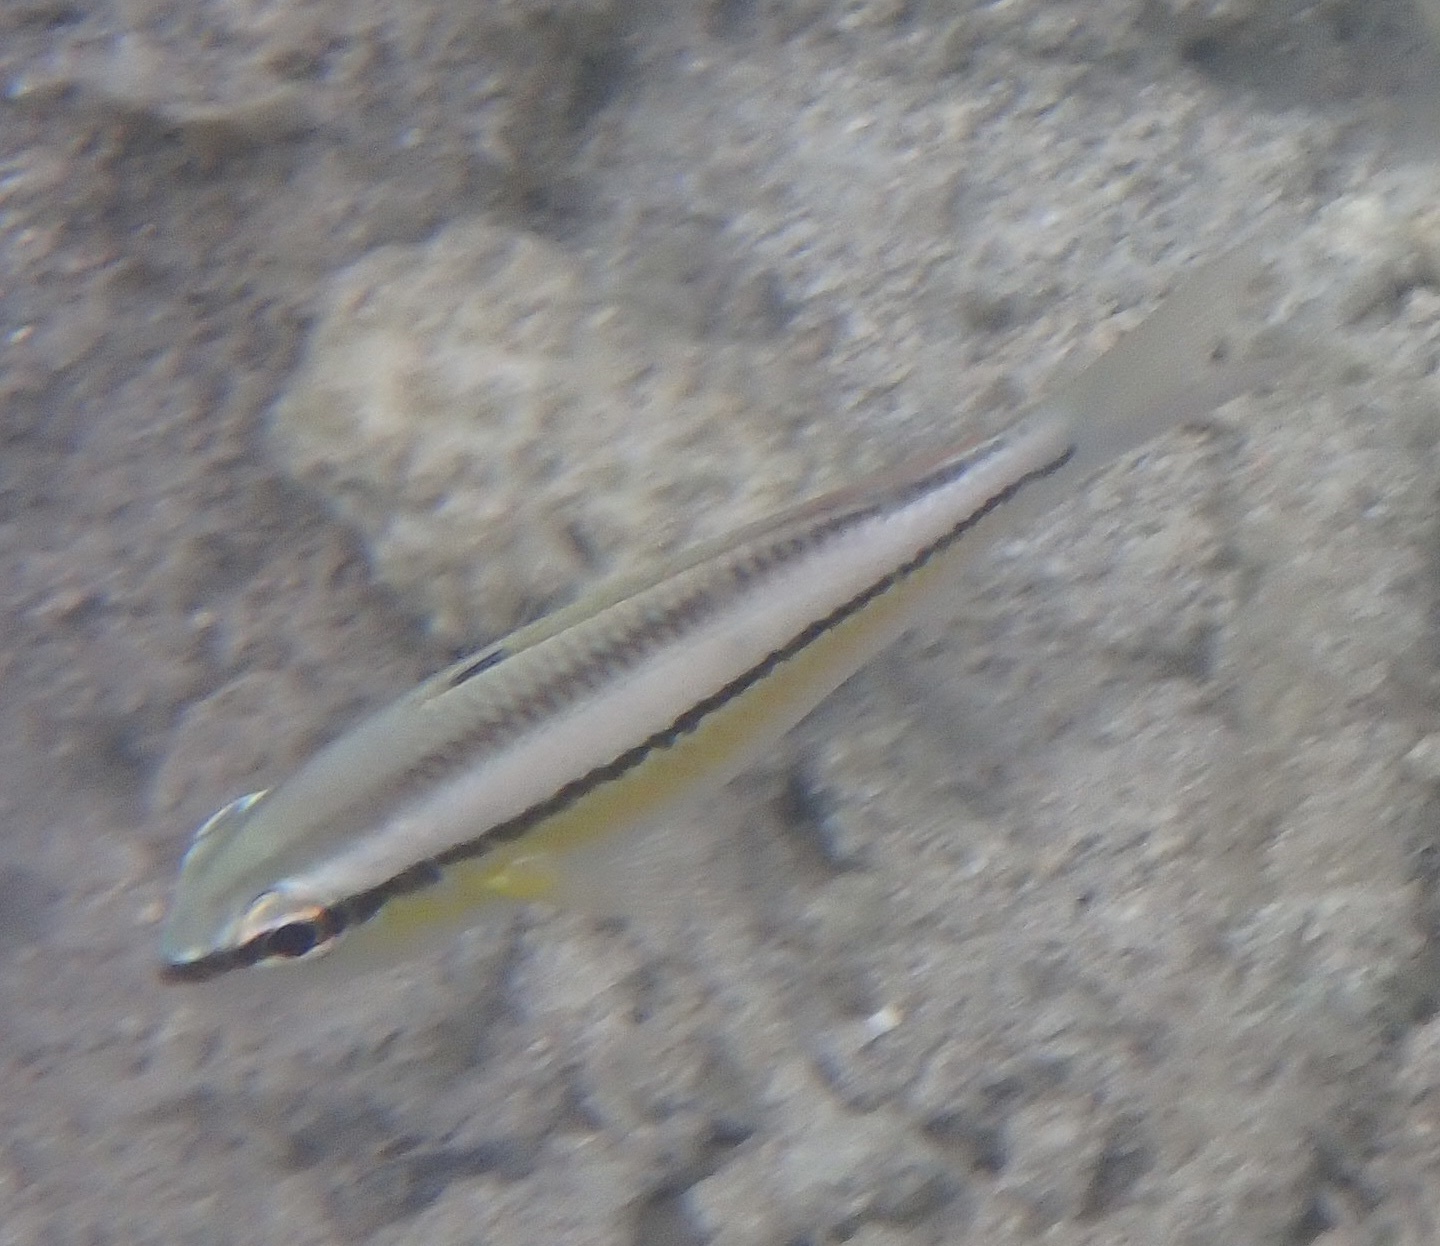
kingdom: Animalia
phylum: Chordata
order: Perciformes
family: Nemipteridae
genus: Scolopsis
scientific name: Scolopsis margaritifera
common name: Pearly monocle bream
